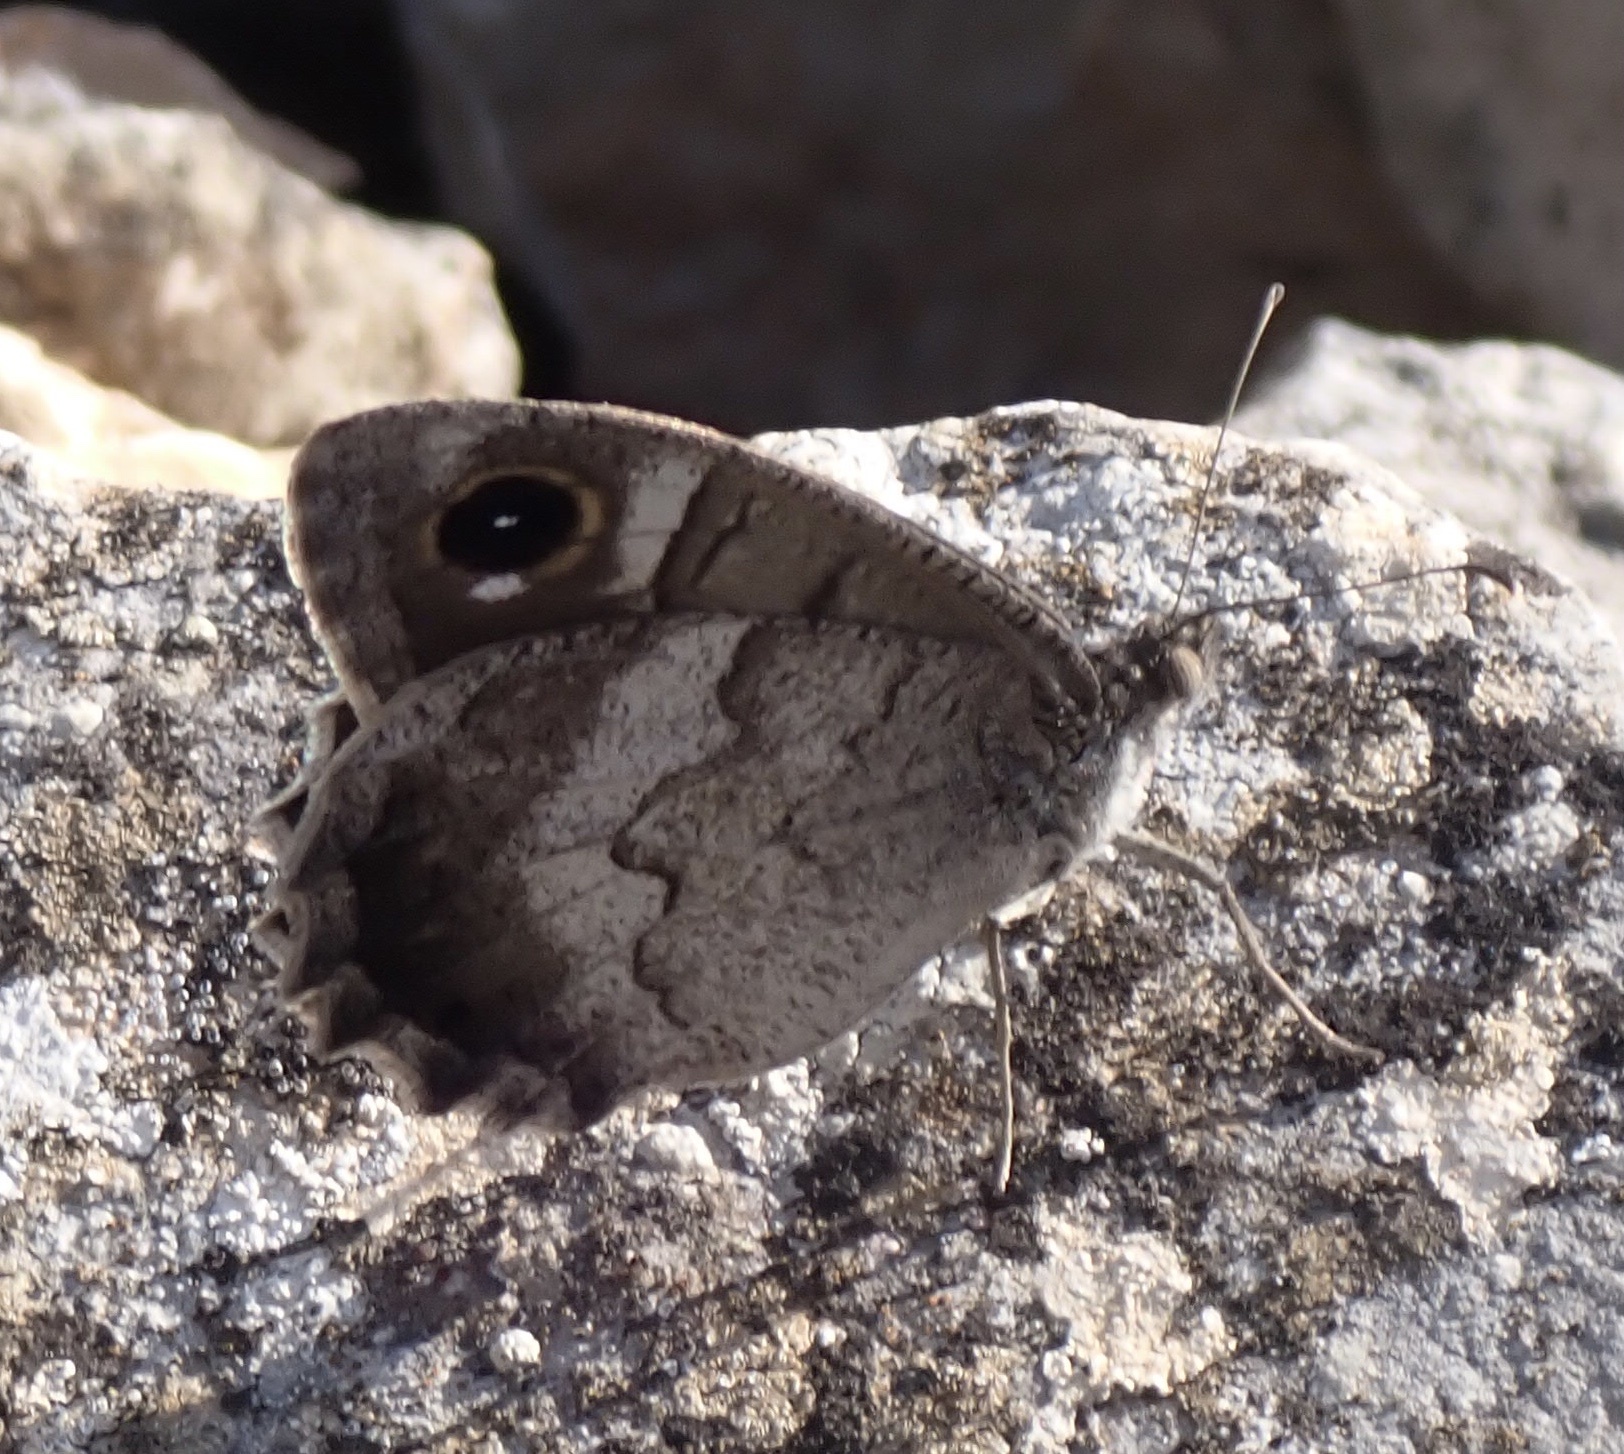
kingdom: Animalia
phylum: Arthropoda
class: Insecta
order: Lepidoptera
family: Nymphalidae
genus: Hipparchia
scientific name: Hipparchia statilinus
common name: Tree grayling
